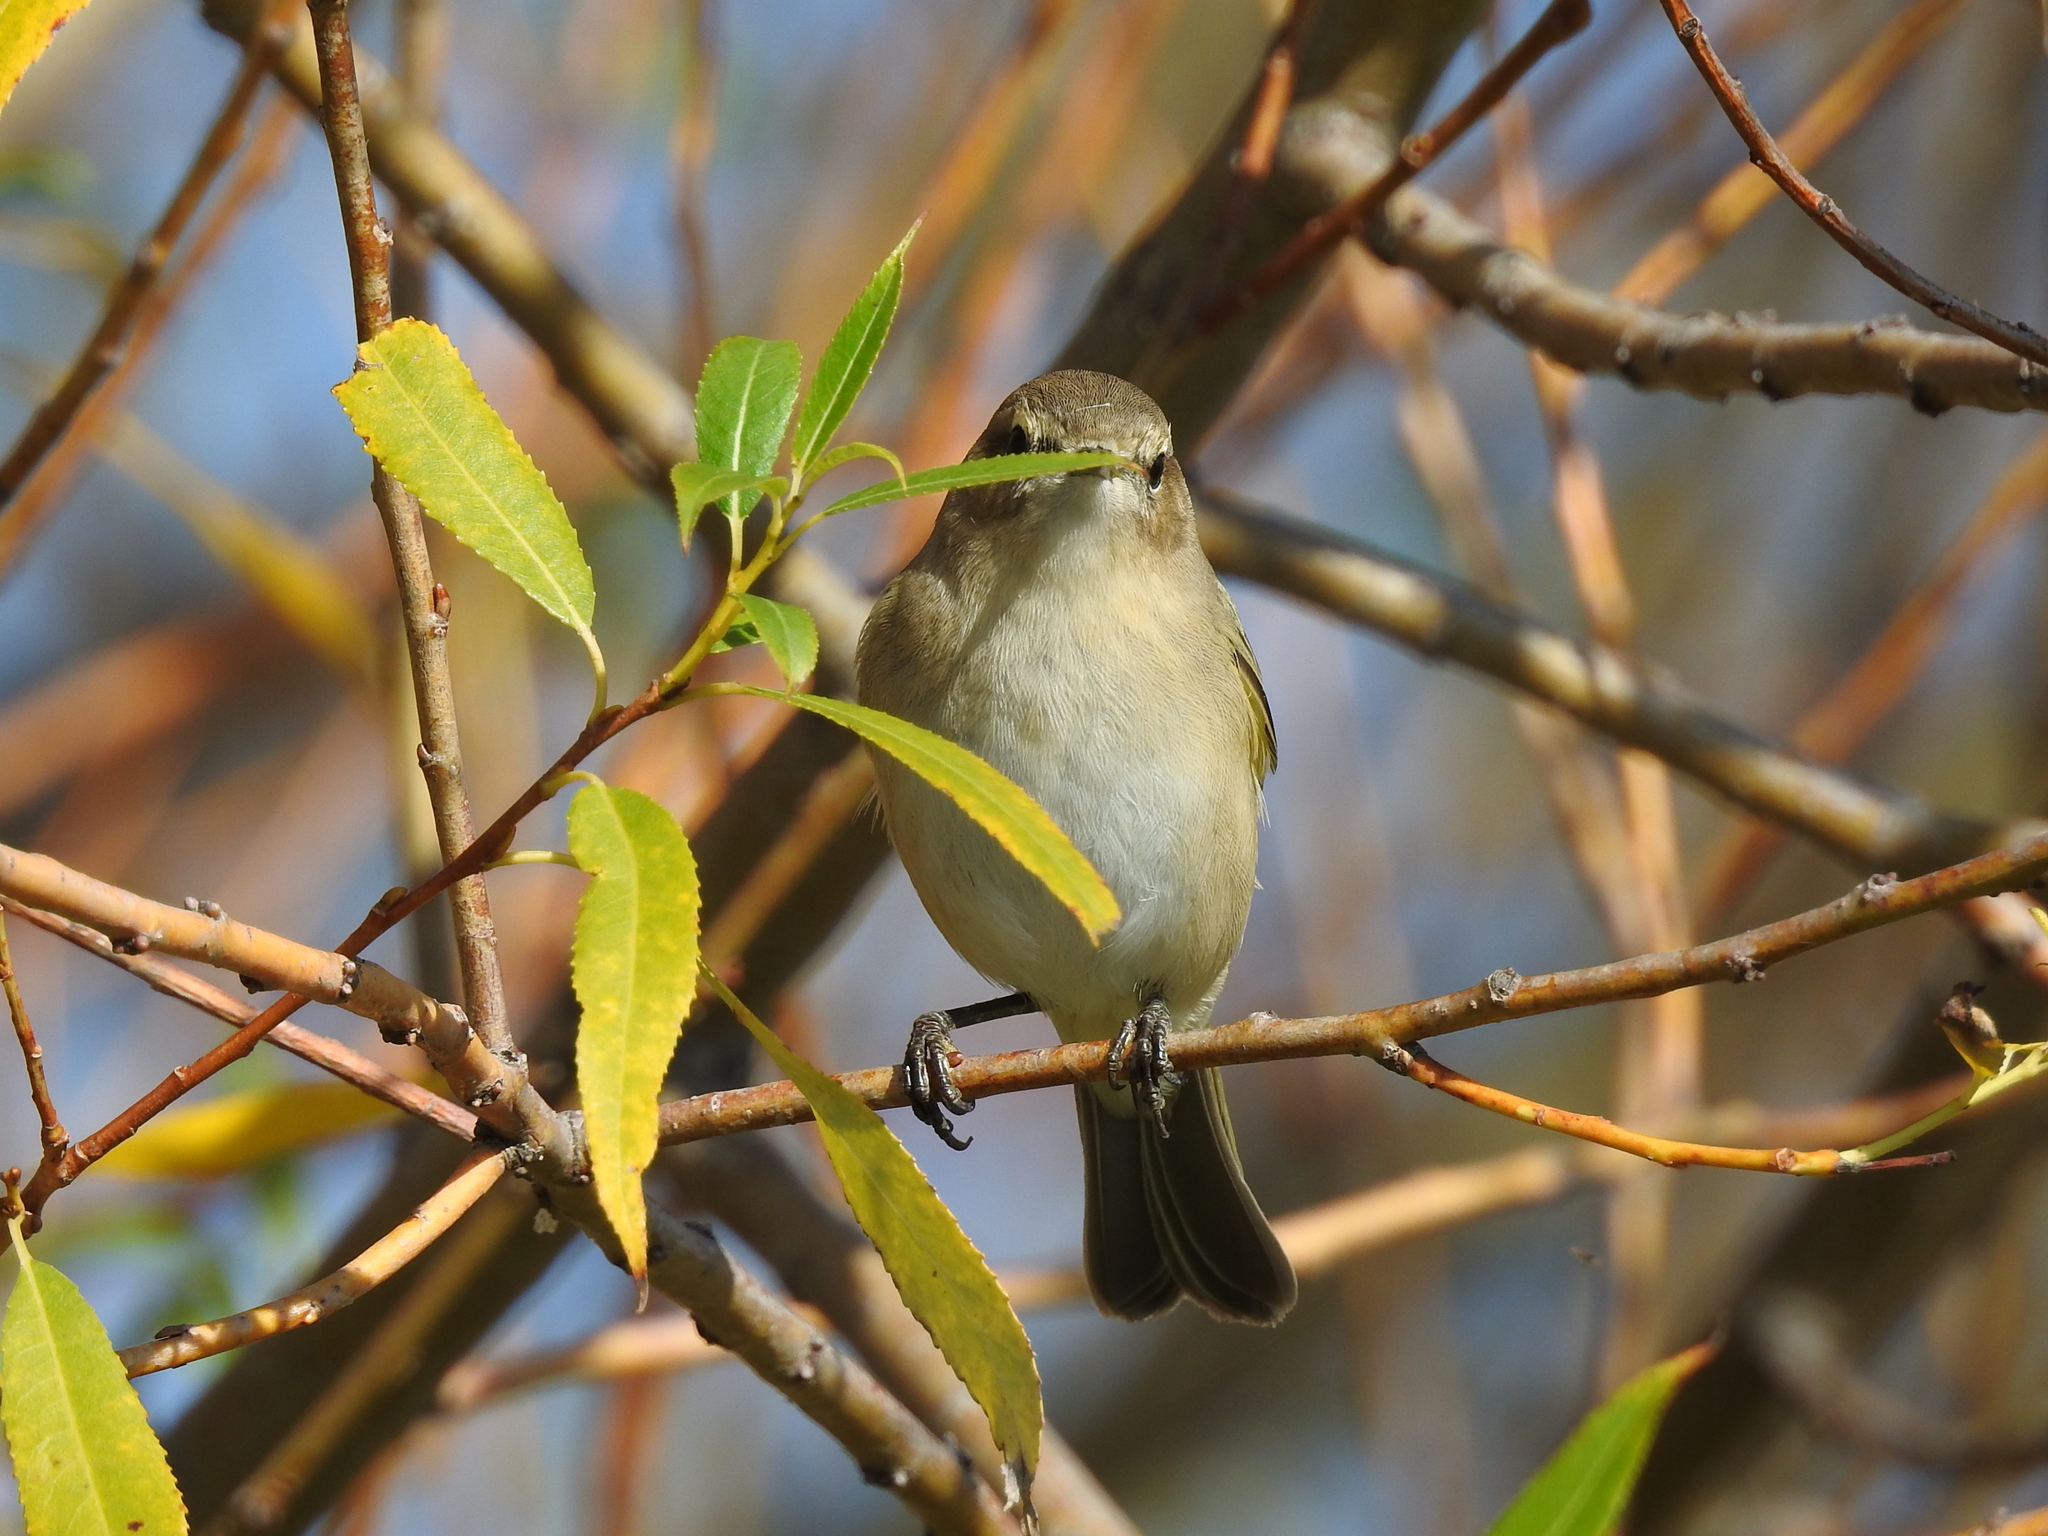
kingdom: Animalia
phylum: Chordata
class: Aves
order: Passeriformes
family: Phylloscopidae
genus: Phylloscopus
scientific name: Phylloscopus collybita
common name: Common chiffchaff
